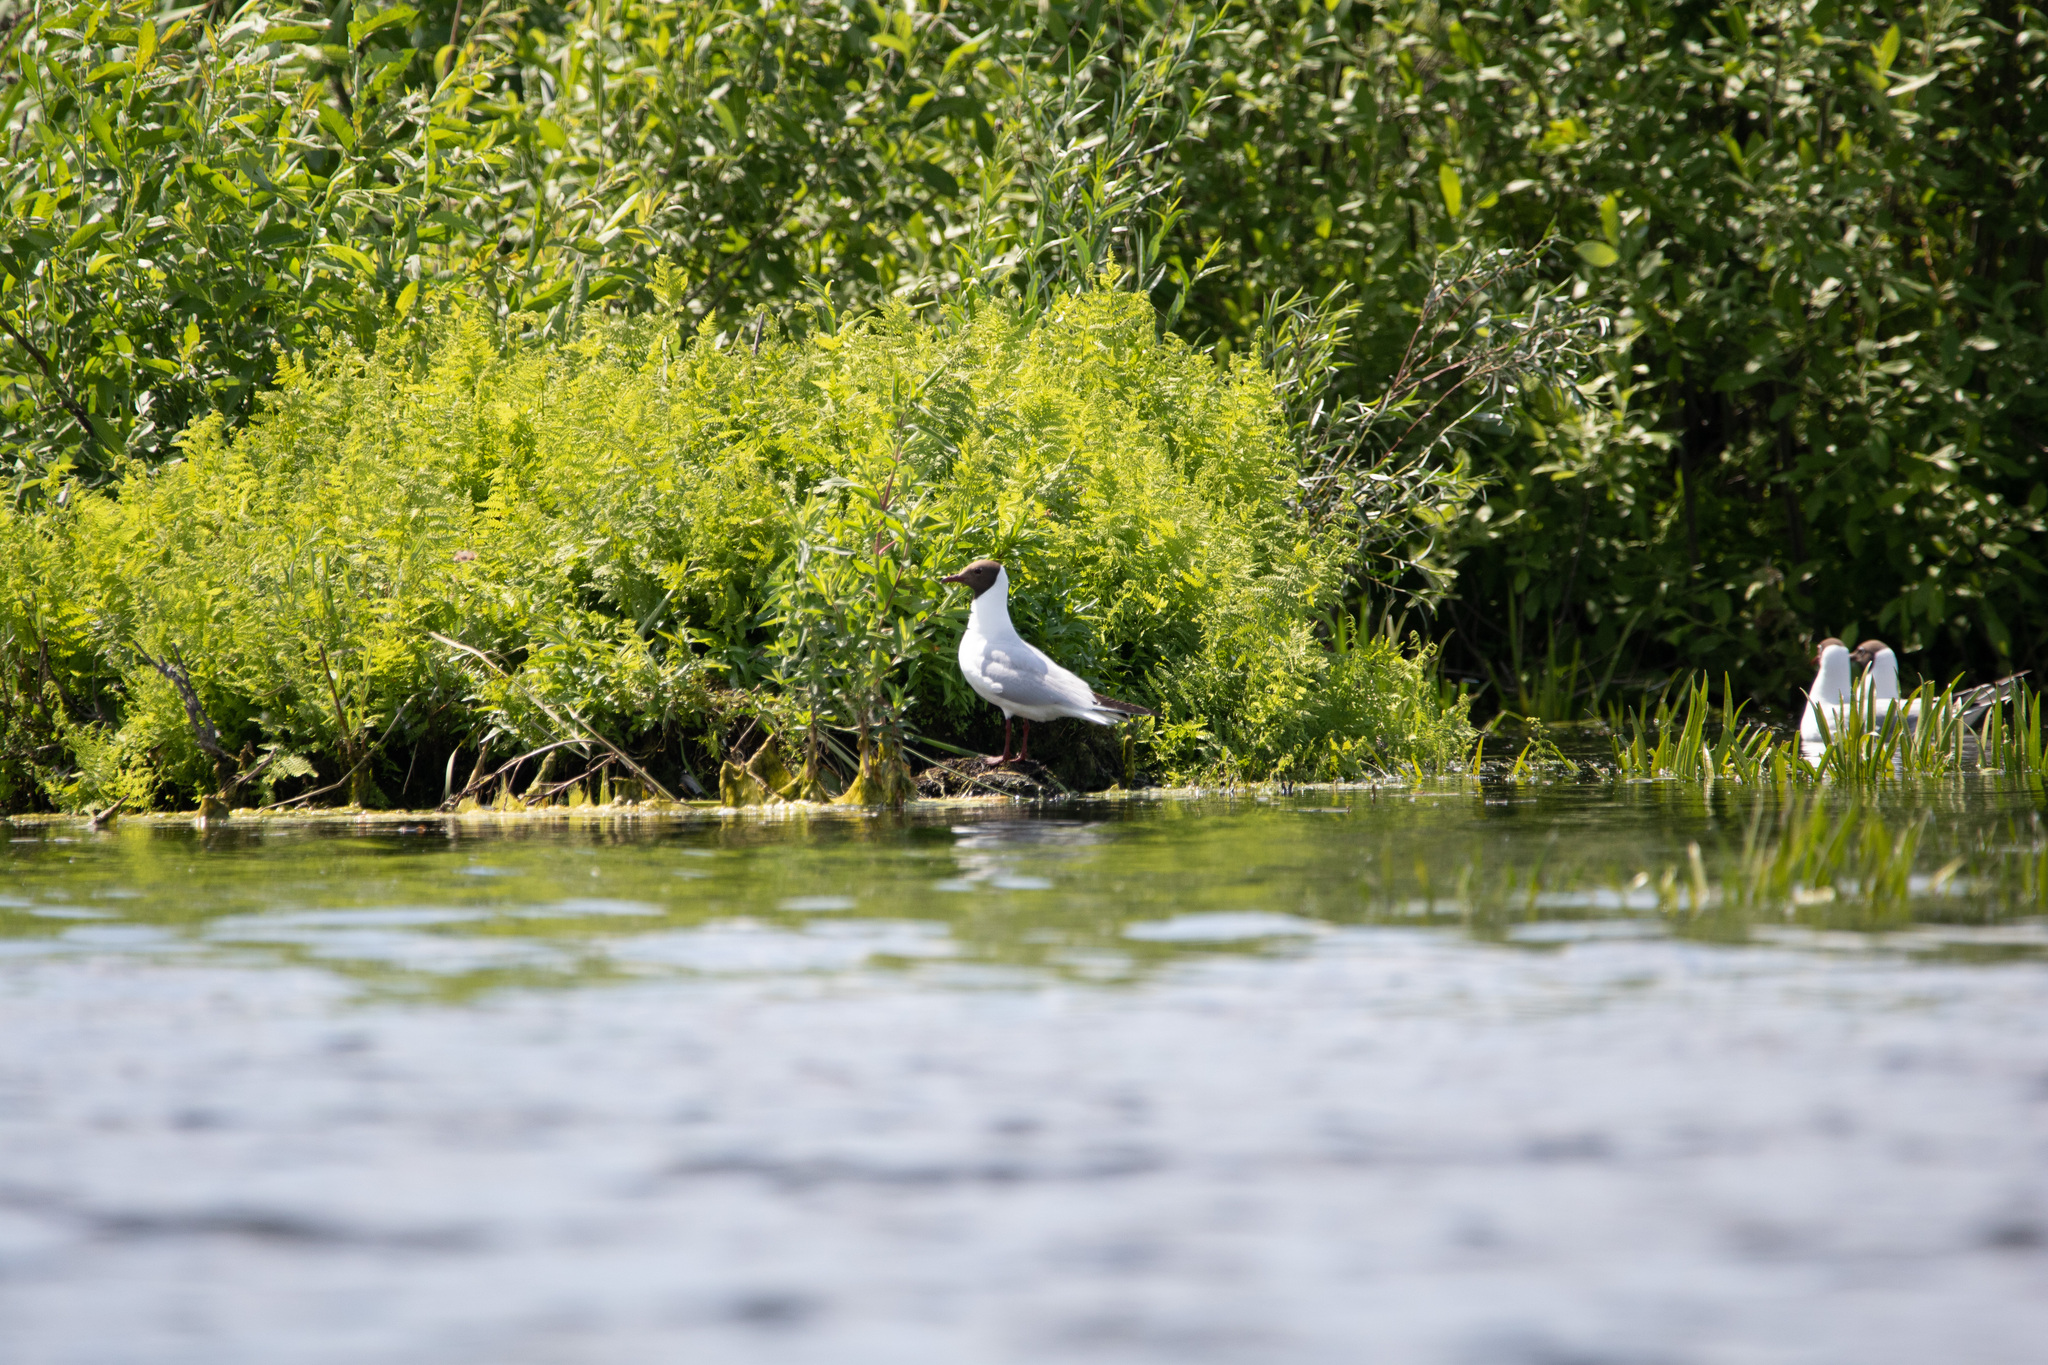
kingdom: Animalia
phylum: Chordata
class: Aves
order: Charadriiformes
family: Laridae
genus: Chroicocephalus
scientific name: Chroicocephalus ridibundus
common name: Black-headed gull
